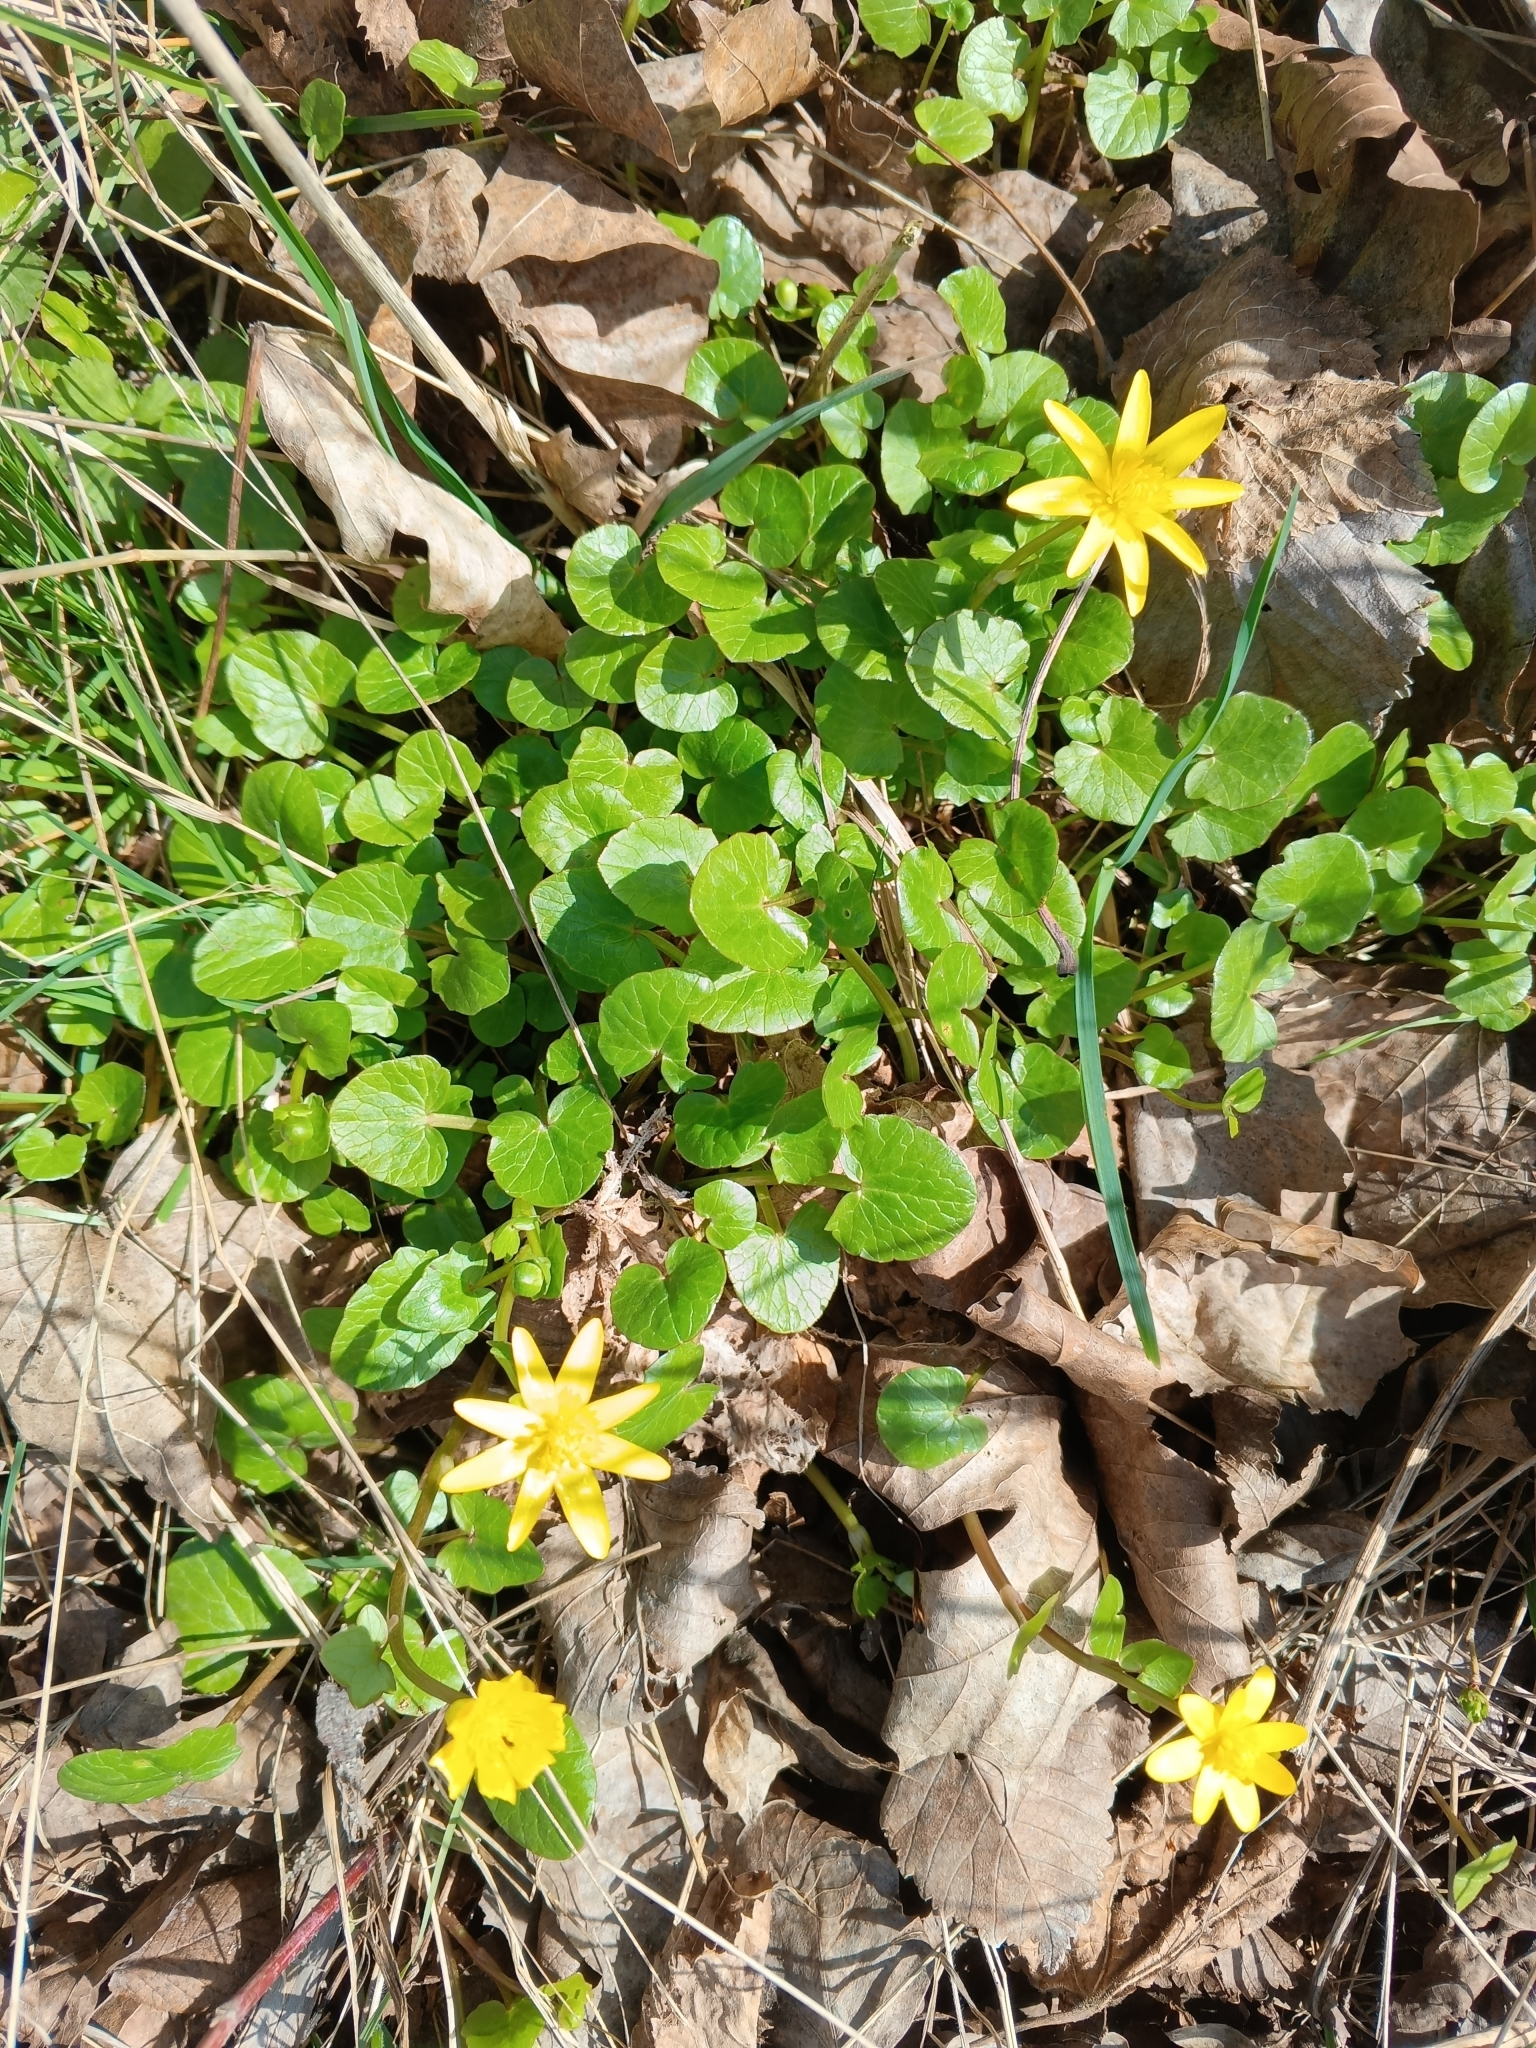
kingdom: Plantae
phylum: Tracheophyta
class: Magnoliopsida
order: Ranunculales
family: Ranunculaceae
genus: Ficaria
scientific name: Ficaria verna
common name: Lesser celandine
